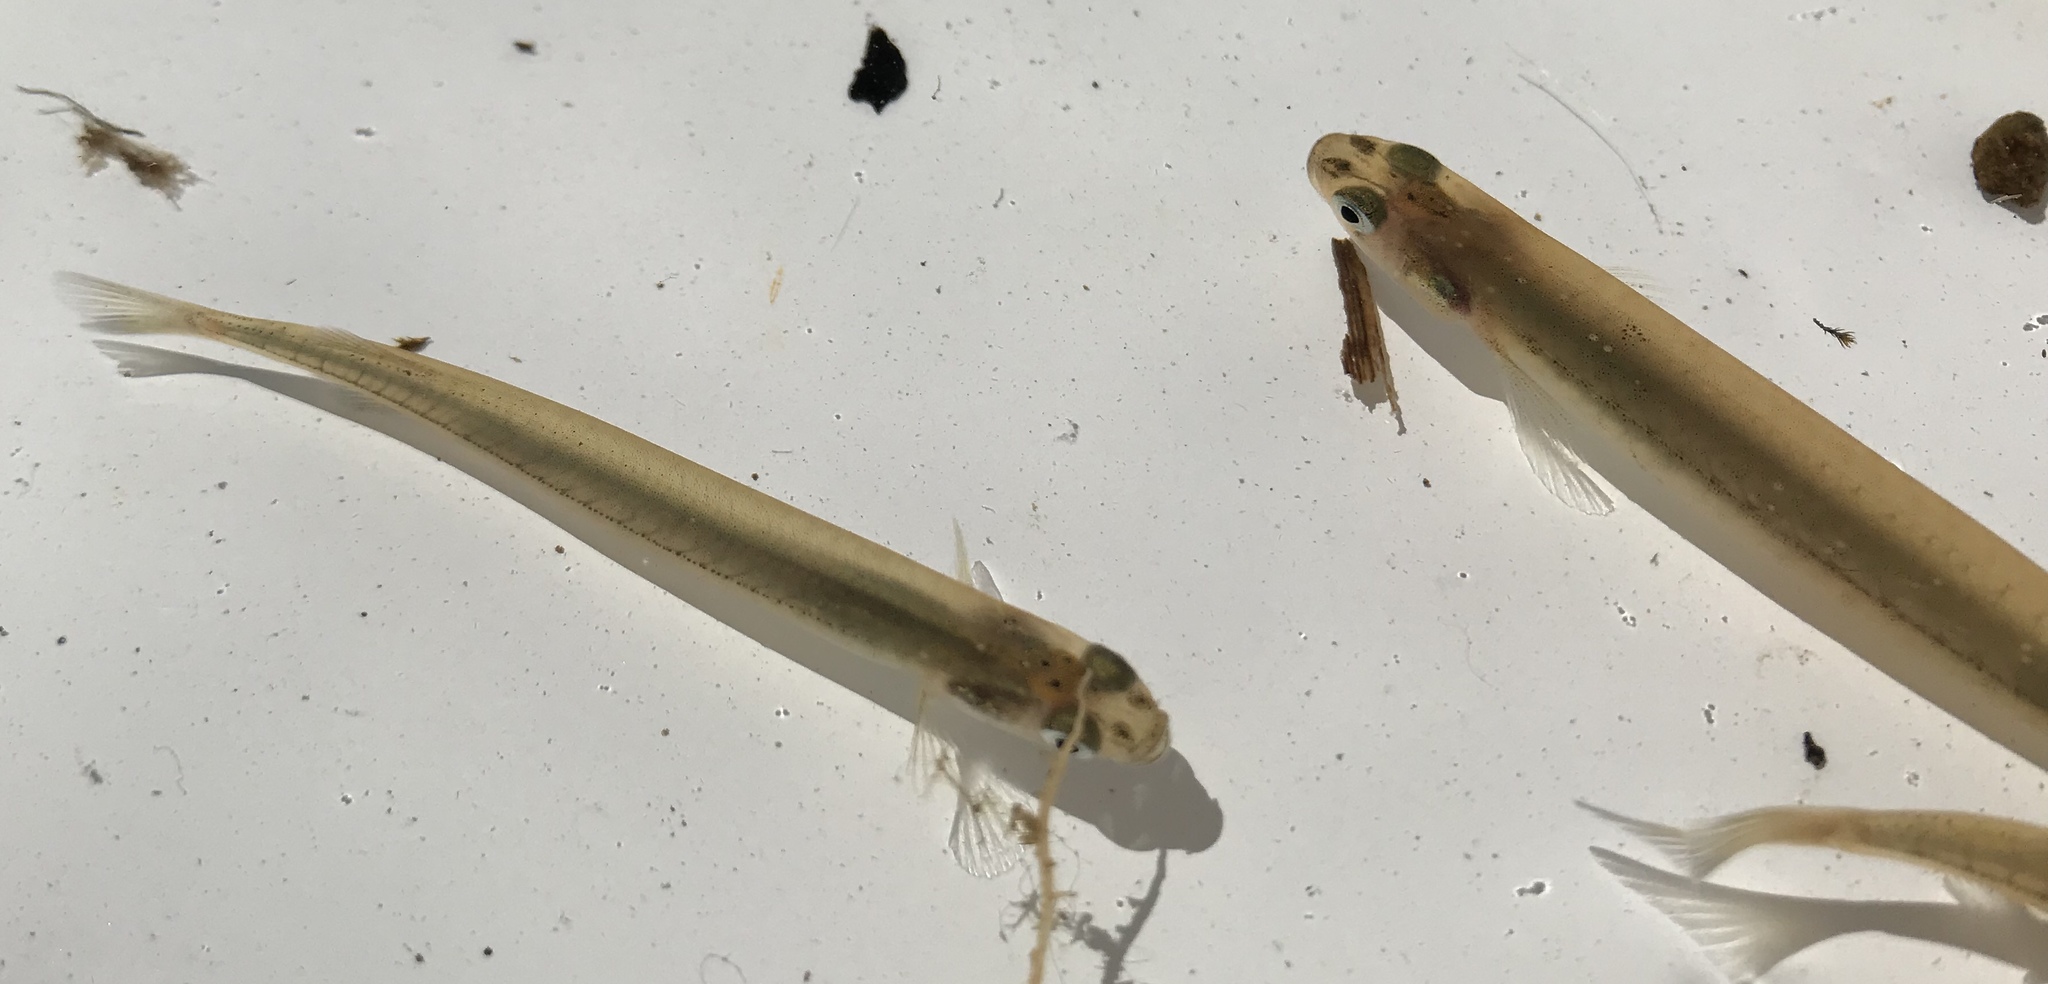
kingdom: Animalia
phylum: Chordata
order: Osmeriformes
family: Galaxiidae
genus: Galaxias
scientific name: Galaxias maculatus
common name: Common galaxias
